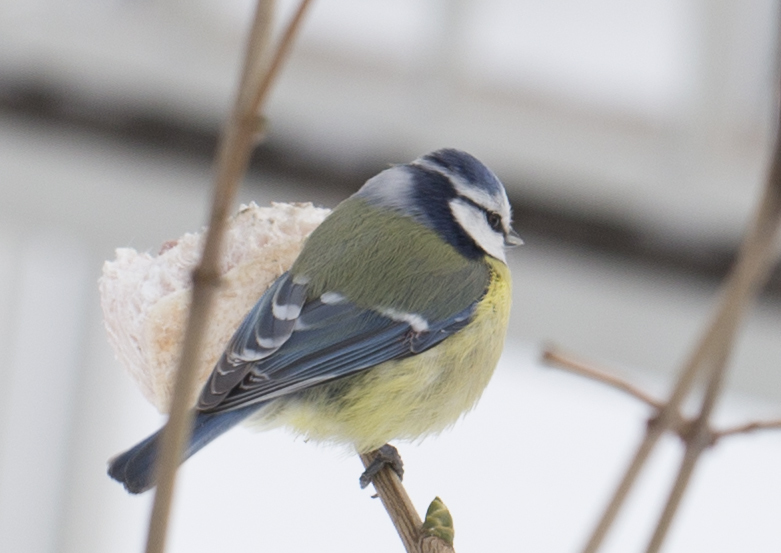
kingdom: Animalia
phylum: Chordata
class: Aves
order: Passeriformes
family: Paridae
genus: Cyanistes
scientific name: Cyanistes caeruleus
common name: Eurasian blue tit
